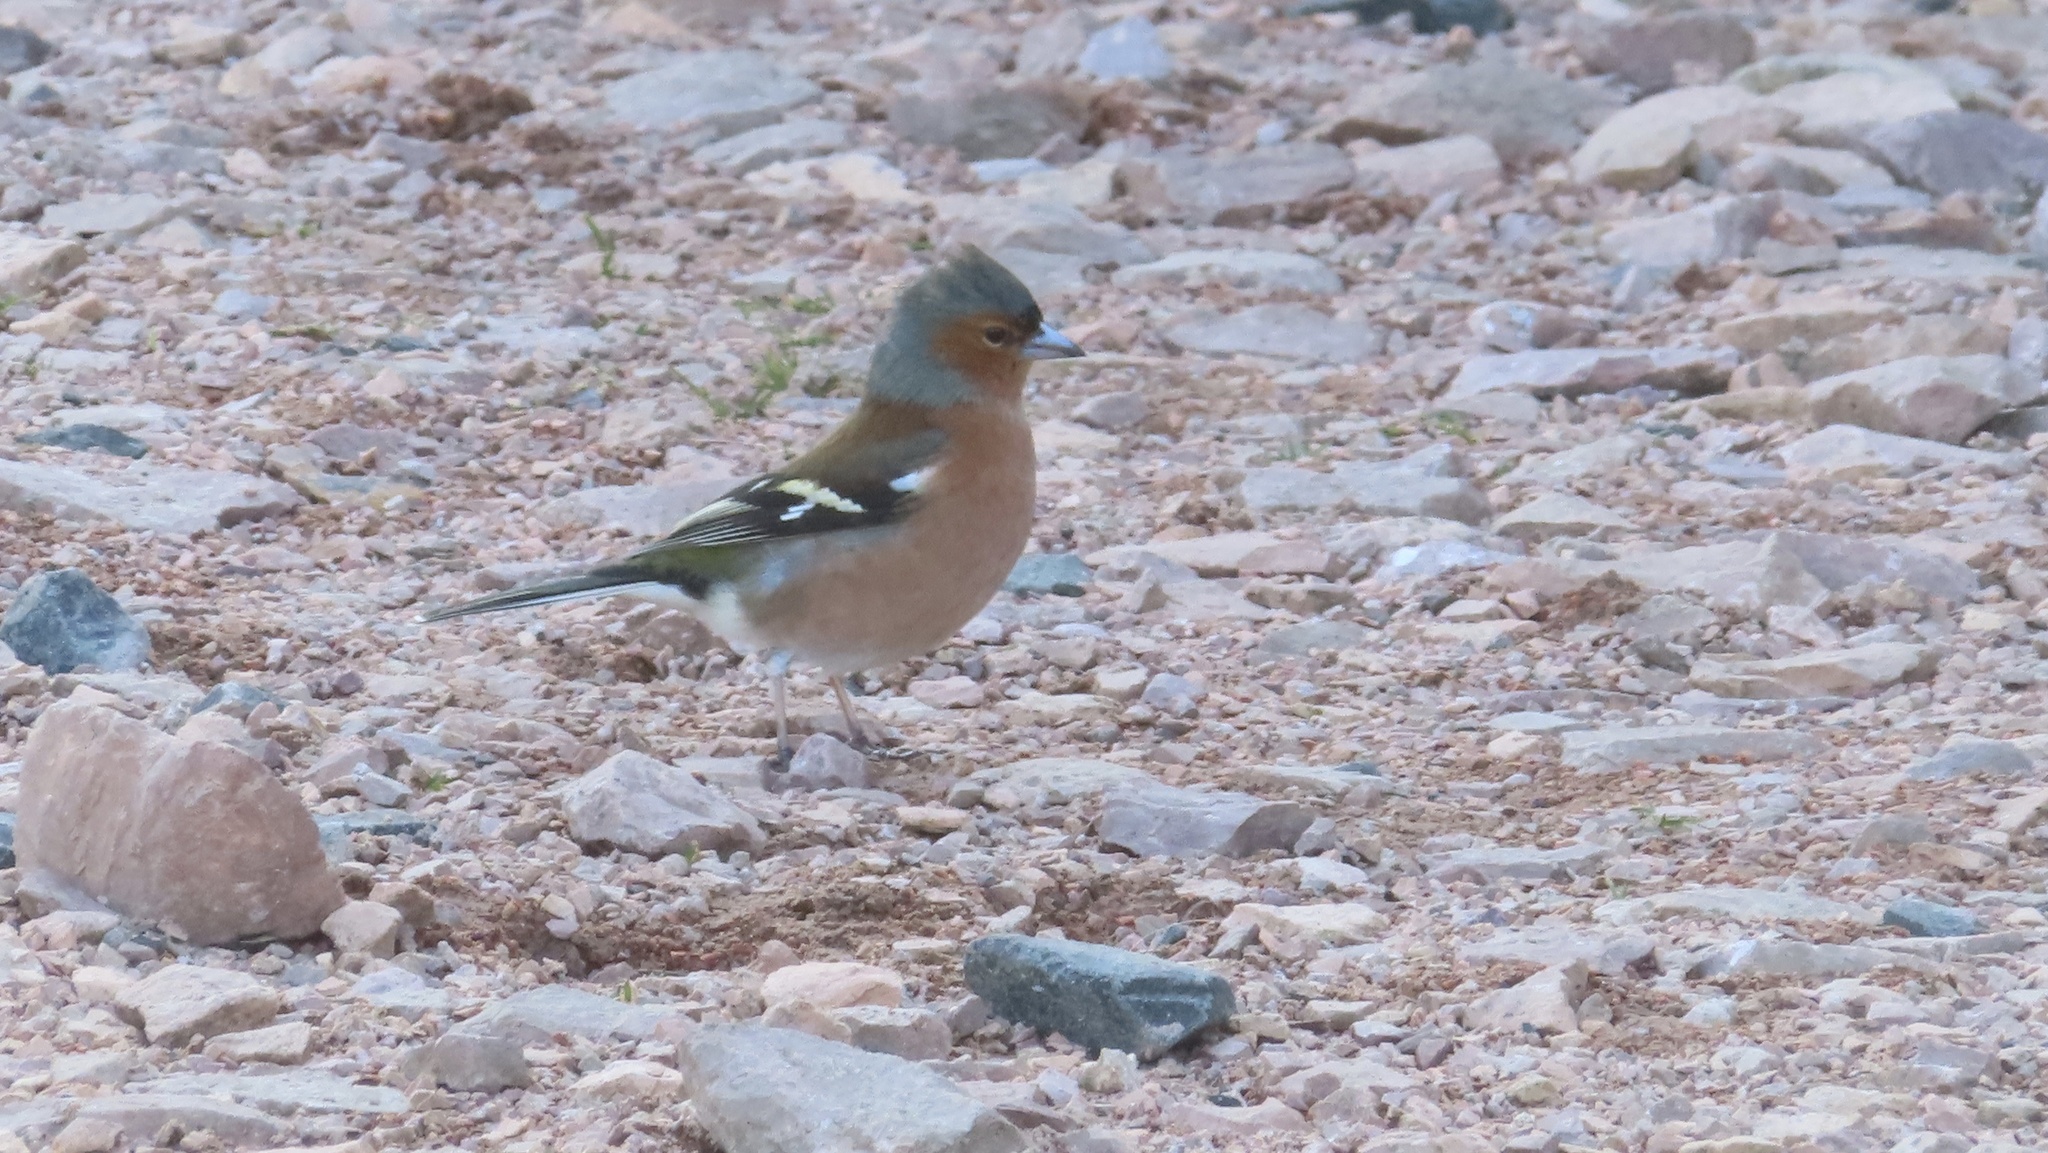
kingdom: Animalia
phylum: Chordata
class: Aves
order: Passeriformes
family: Fringillidae
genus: Fringilla
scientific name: Fringilla coelebs
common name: Common chaffinch
